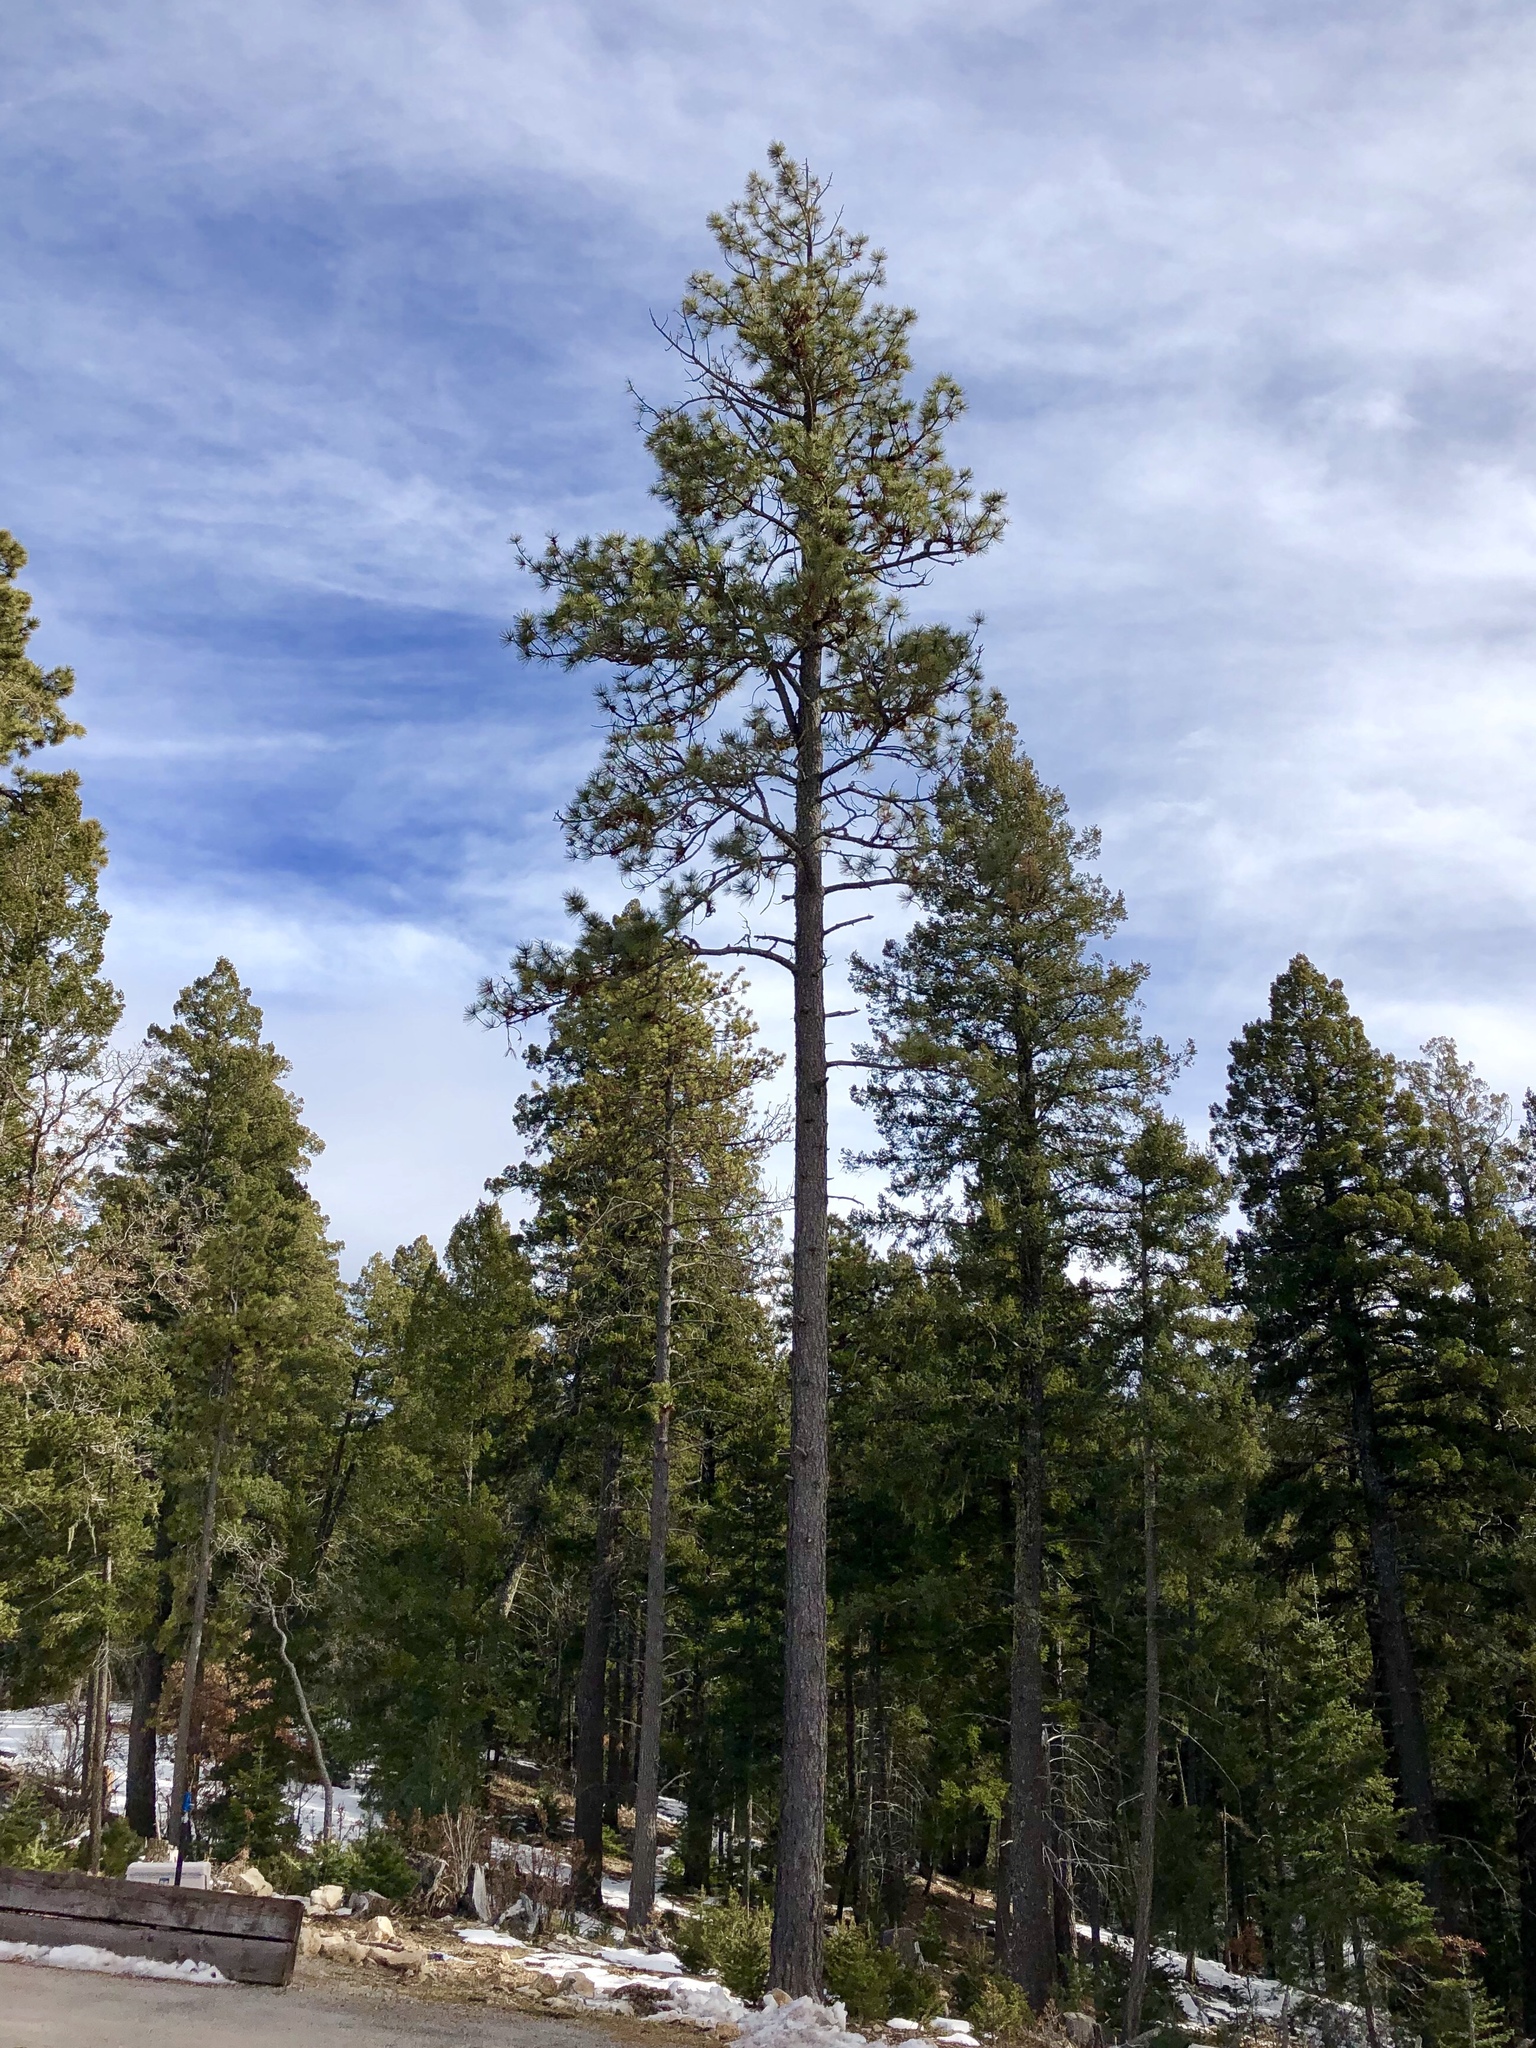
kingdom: Plantae
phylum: Tracheophyta
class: Pinopsida
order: Pinales
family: Pinaceae
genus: Pinus
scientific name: Pinus ponderosa
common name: Western yellow-pine
